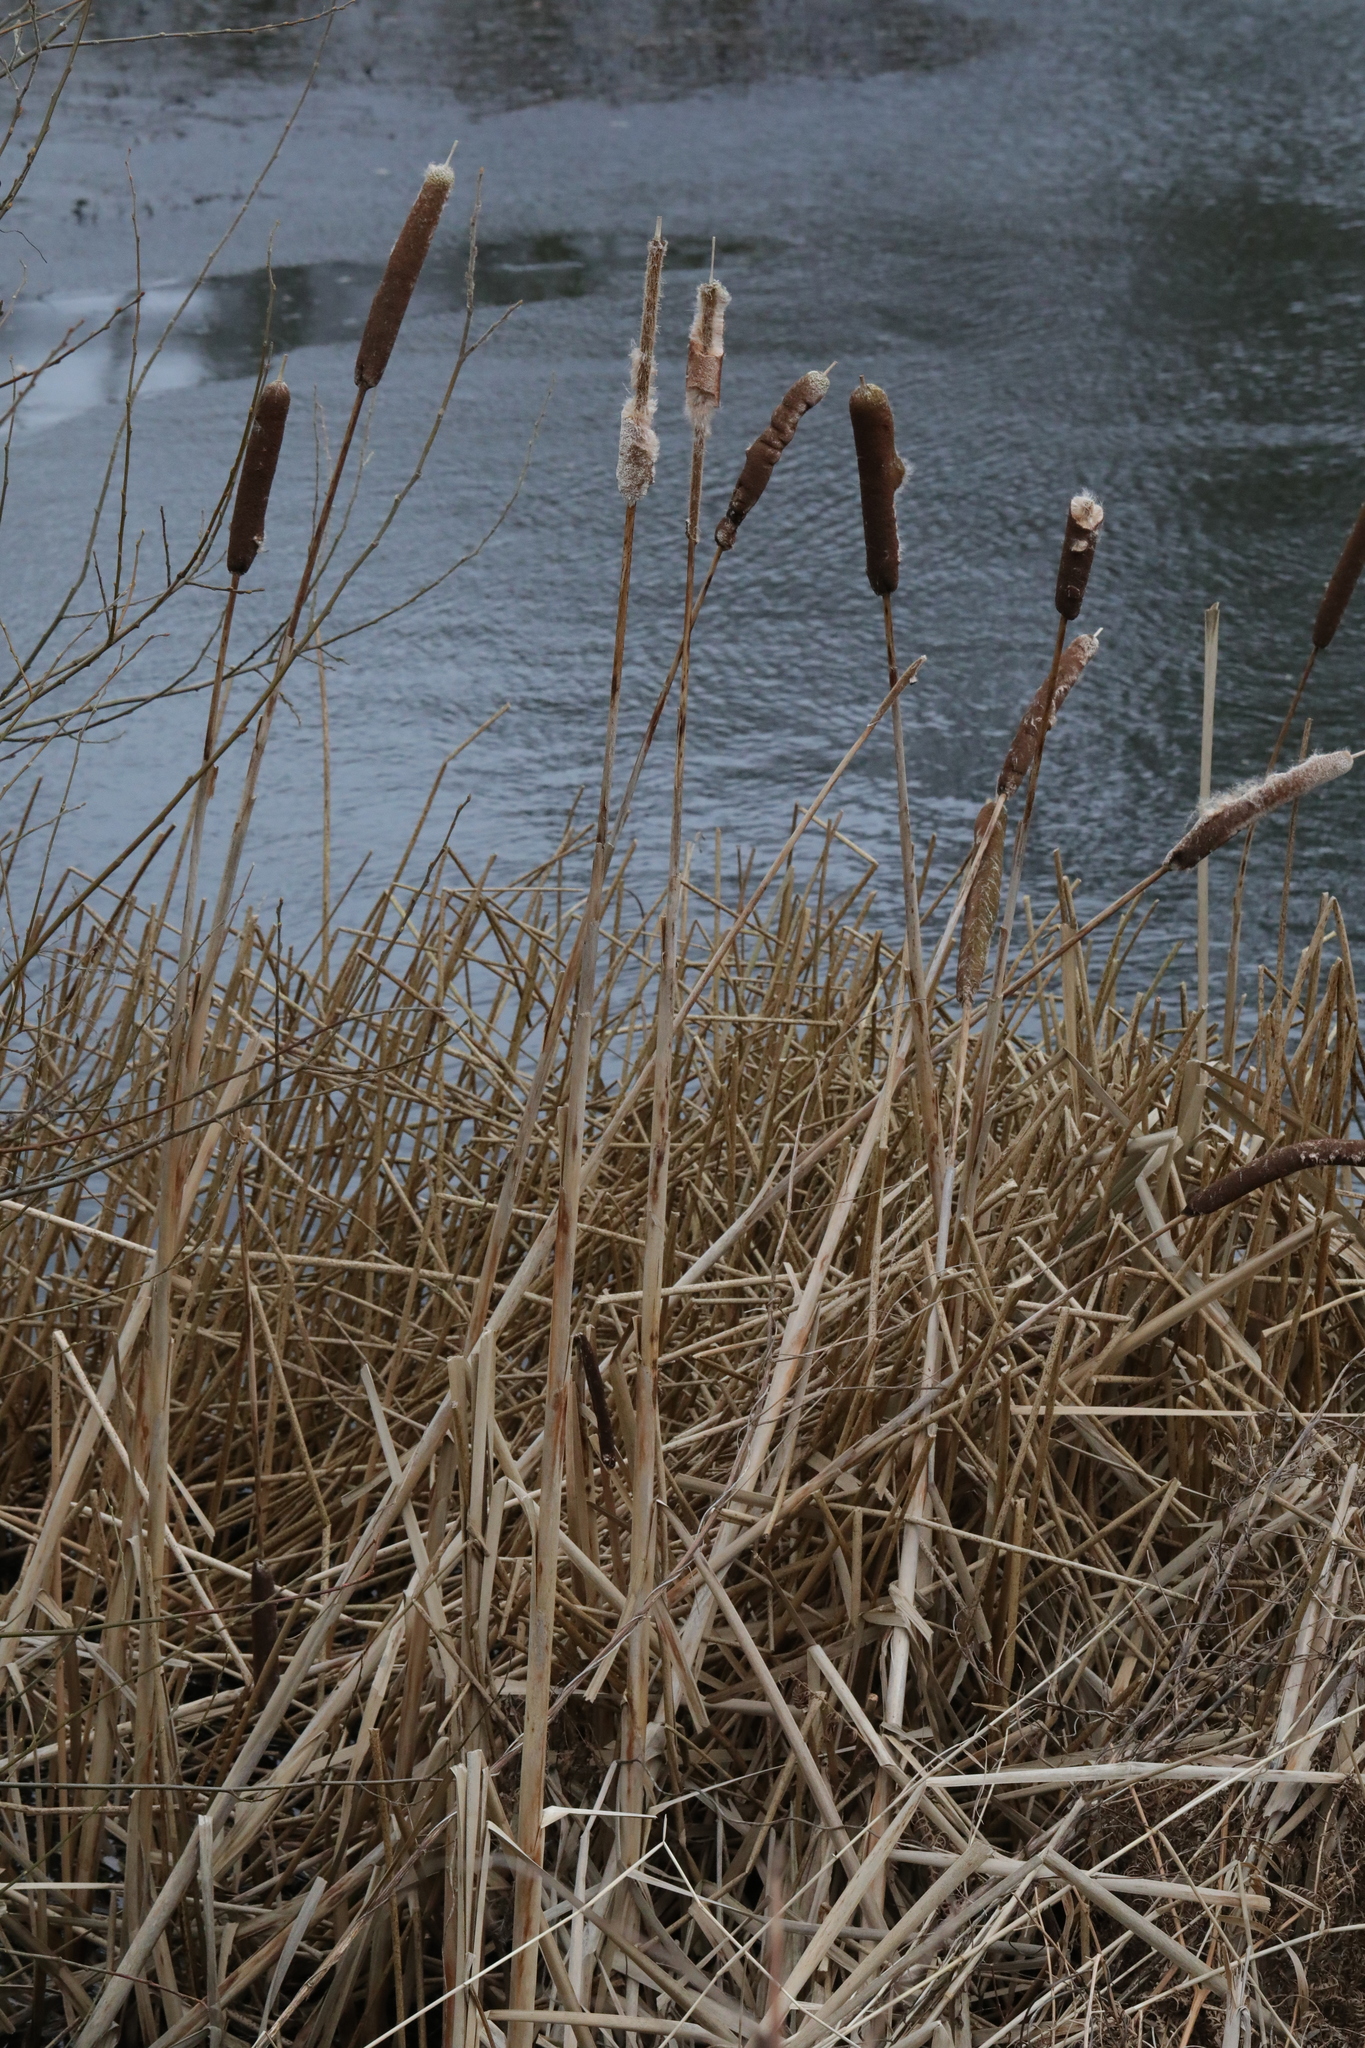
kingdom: Plantae
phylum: Tracheophyta
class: Liliopsida
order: Poales
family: Typhaceae
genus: Typha
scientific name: Typha latifolia
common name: Broadleaf cattail
